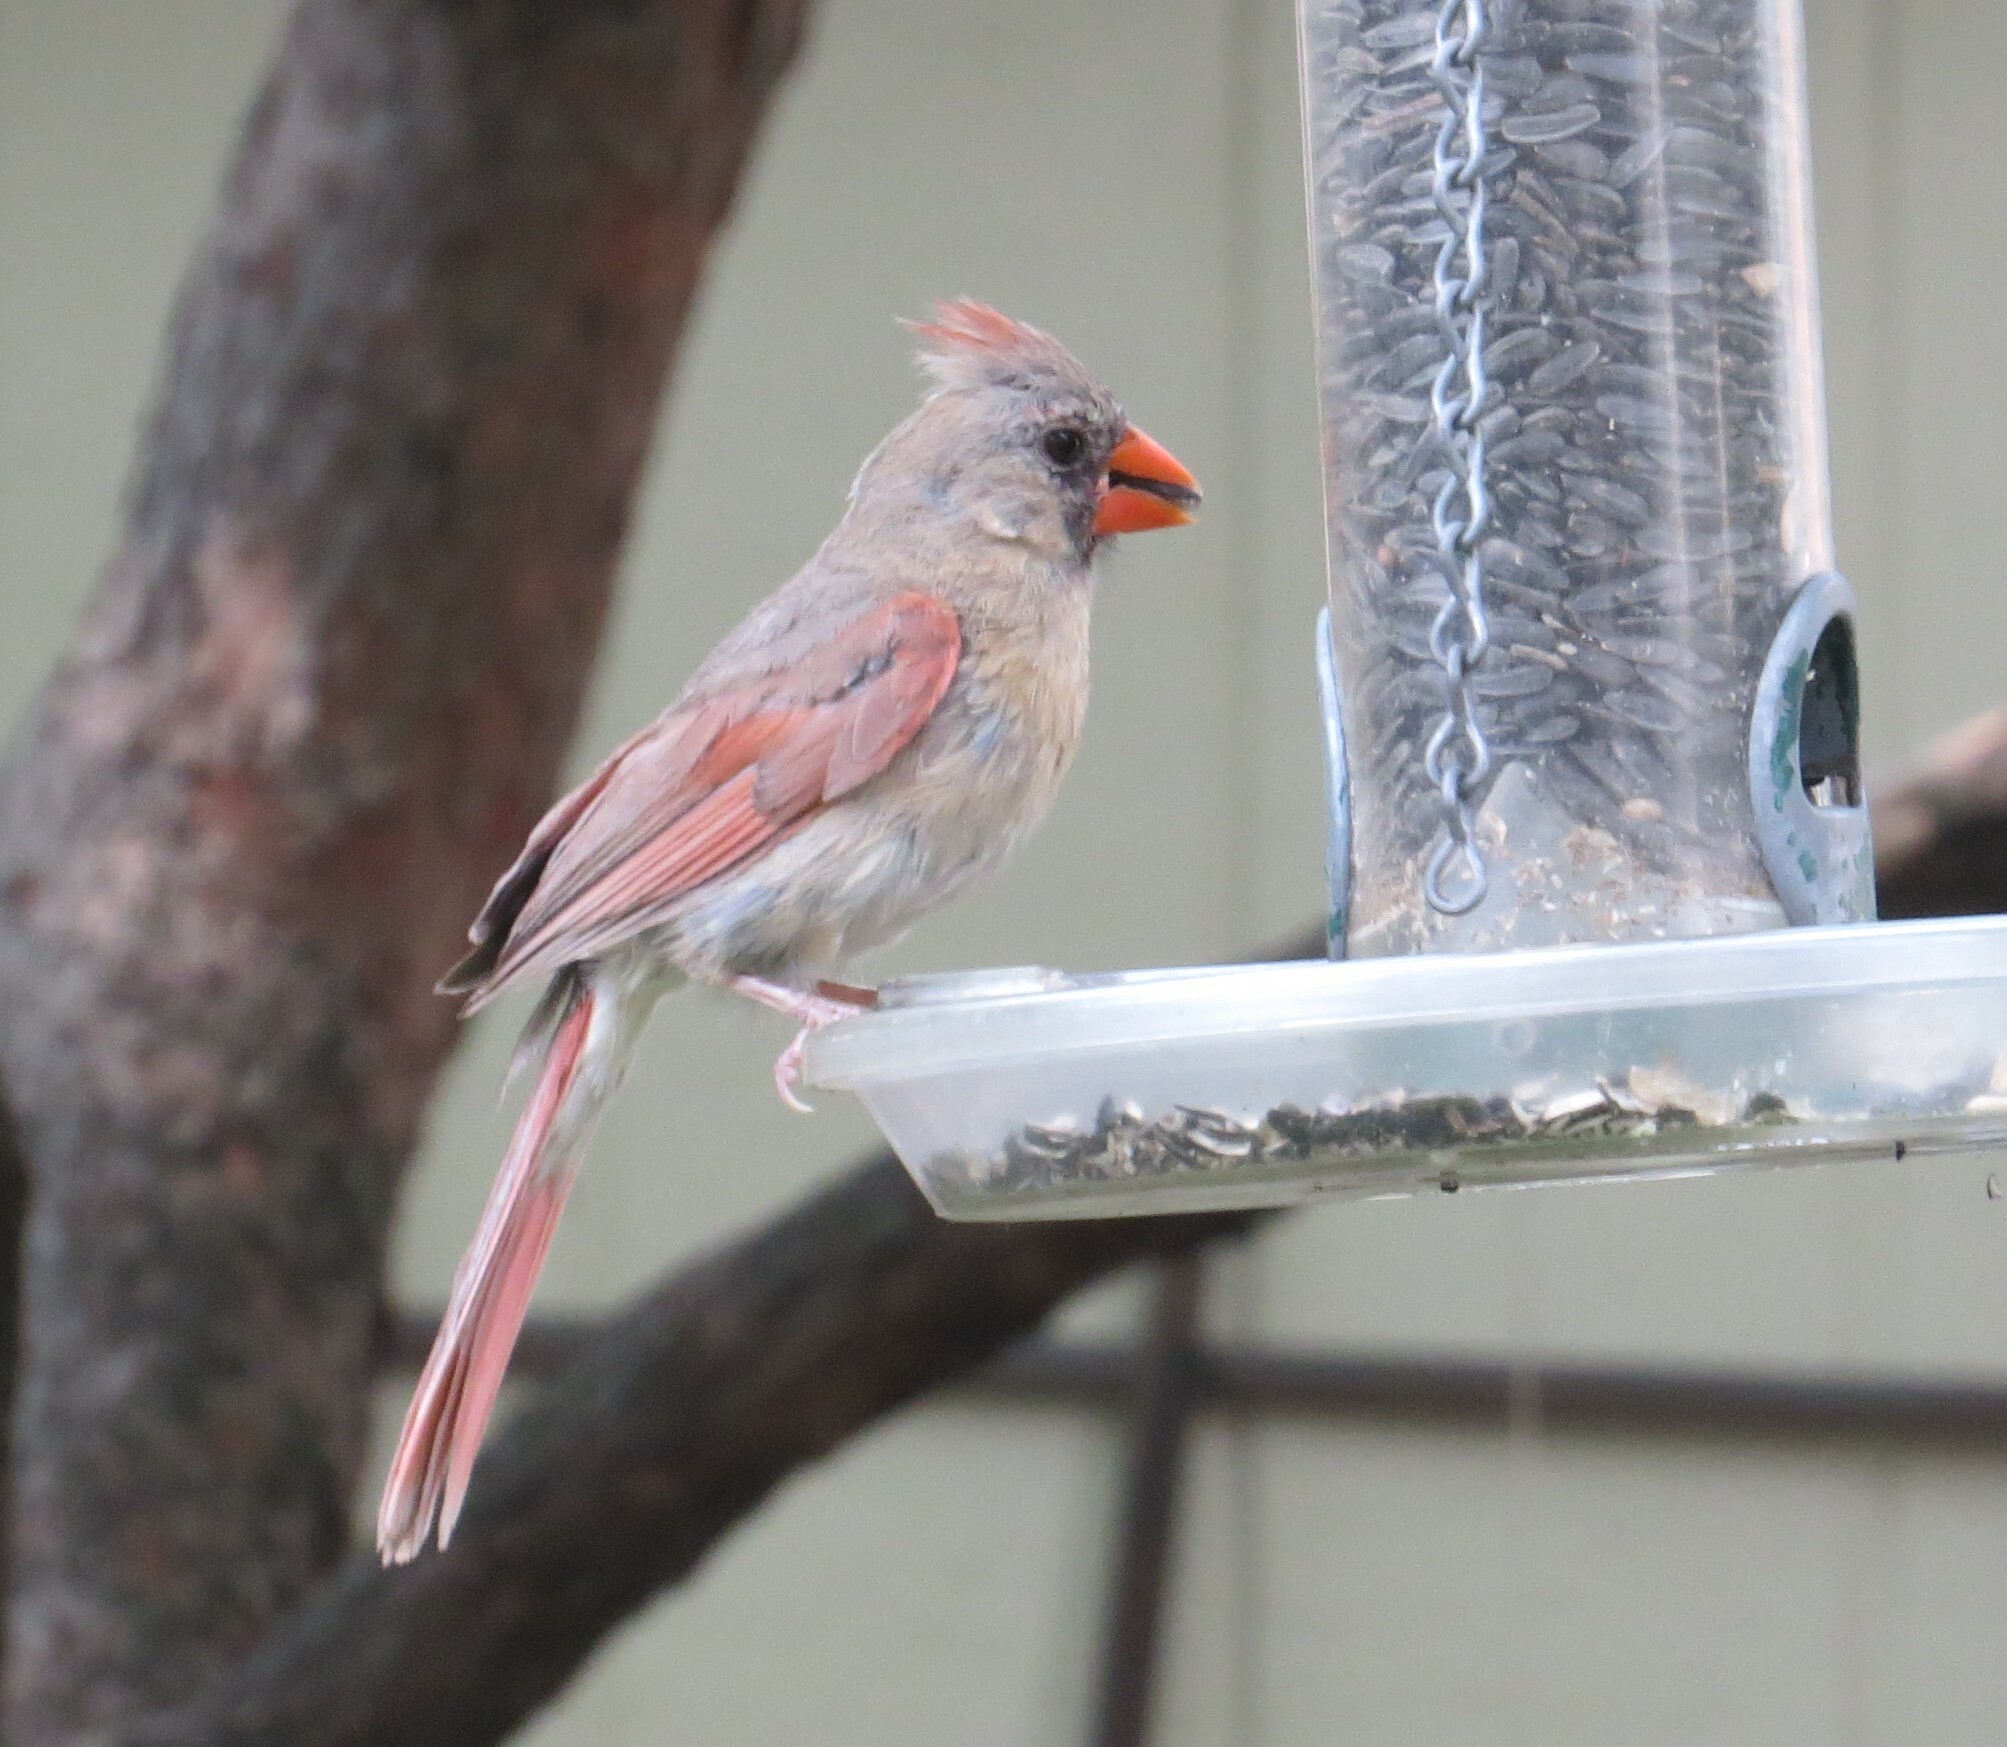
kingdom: Animalia
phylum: Chordata
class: Aves
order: Passeriformes
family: Cardinalidae
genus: Cardinalis
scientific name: Cardinalis cardinalis
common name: Northern cardinal
